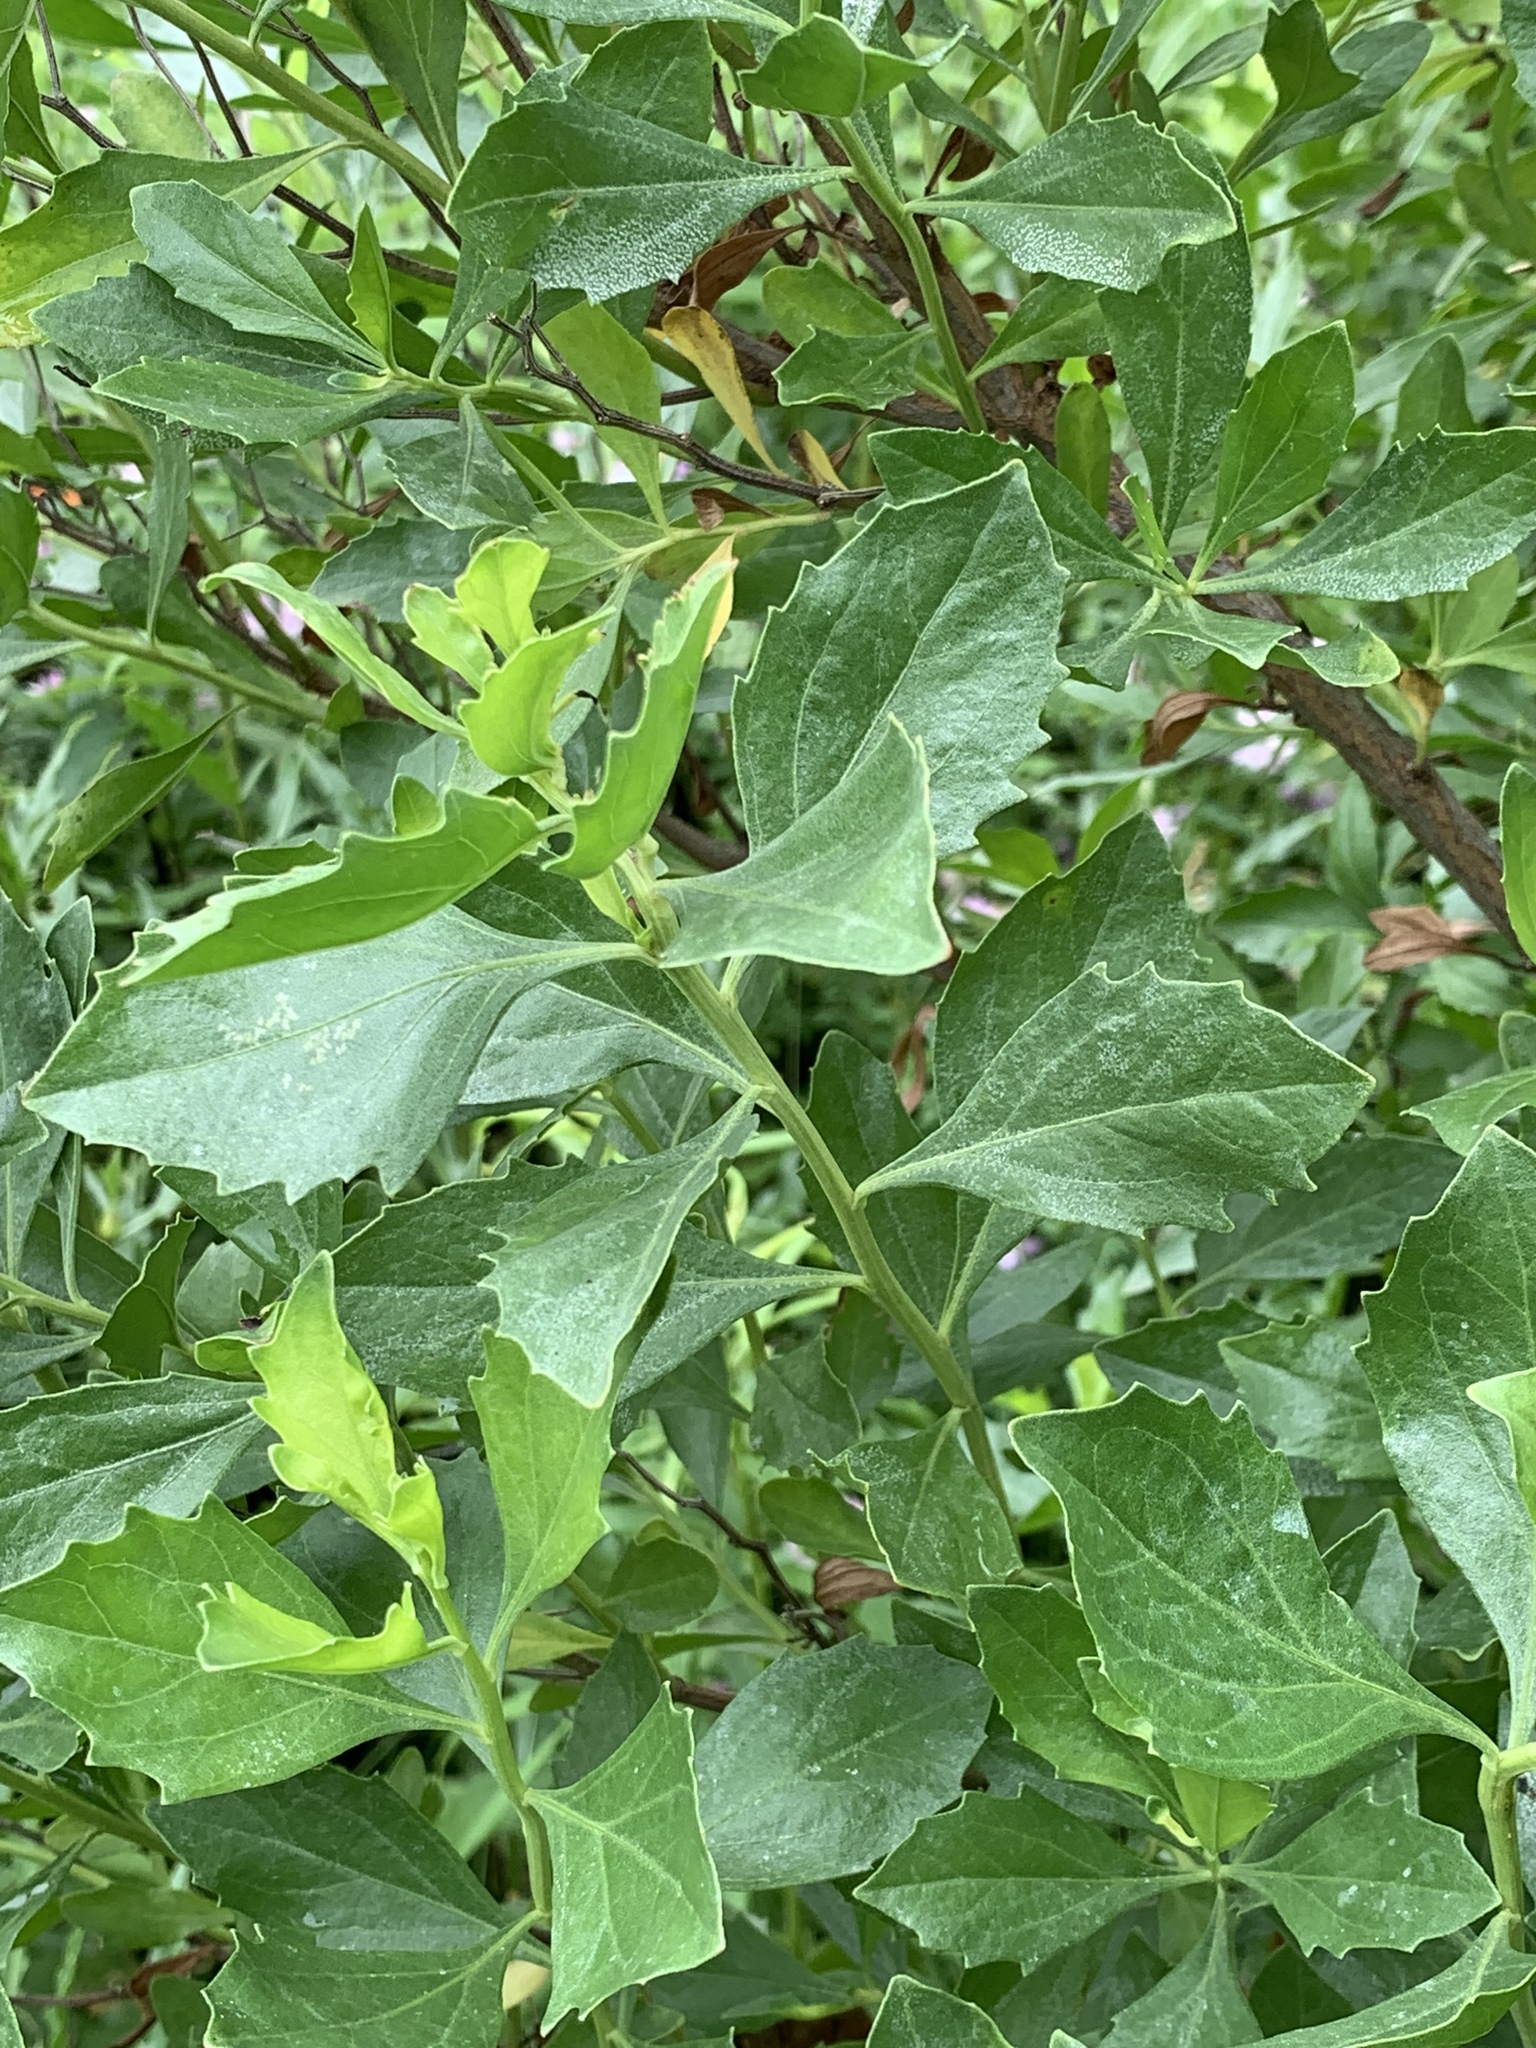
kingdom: Plantae
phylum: Tracheophyta
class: Magnoliopsida
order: Asterales
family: Asteraceae
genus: Baccharis
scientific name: Baccharis halimifolia
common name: Eastern baccharis
